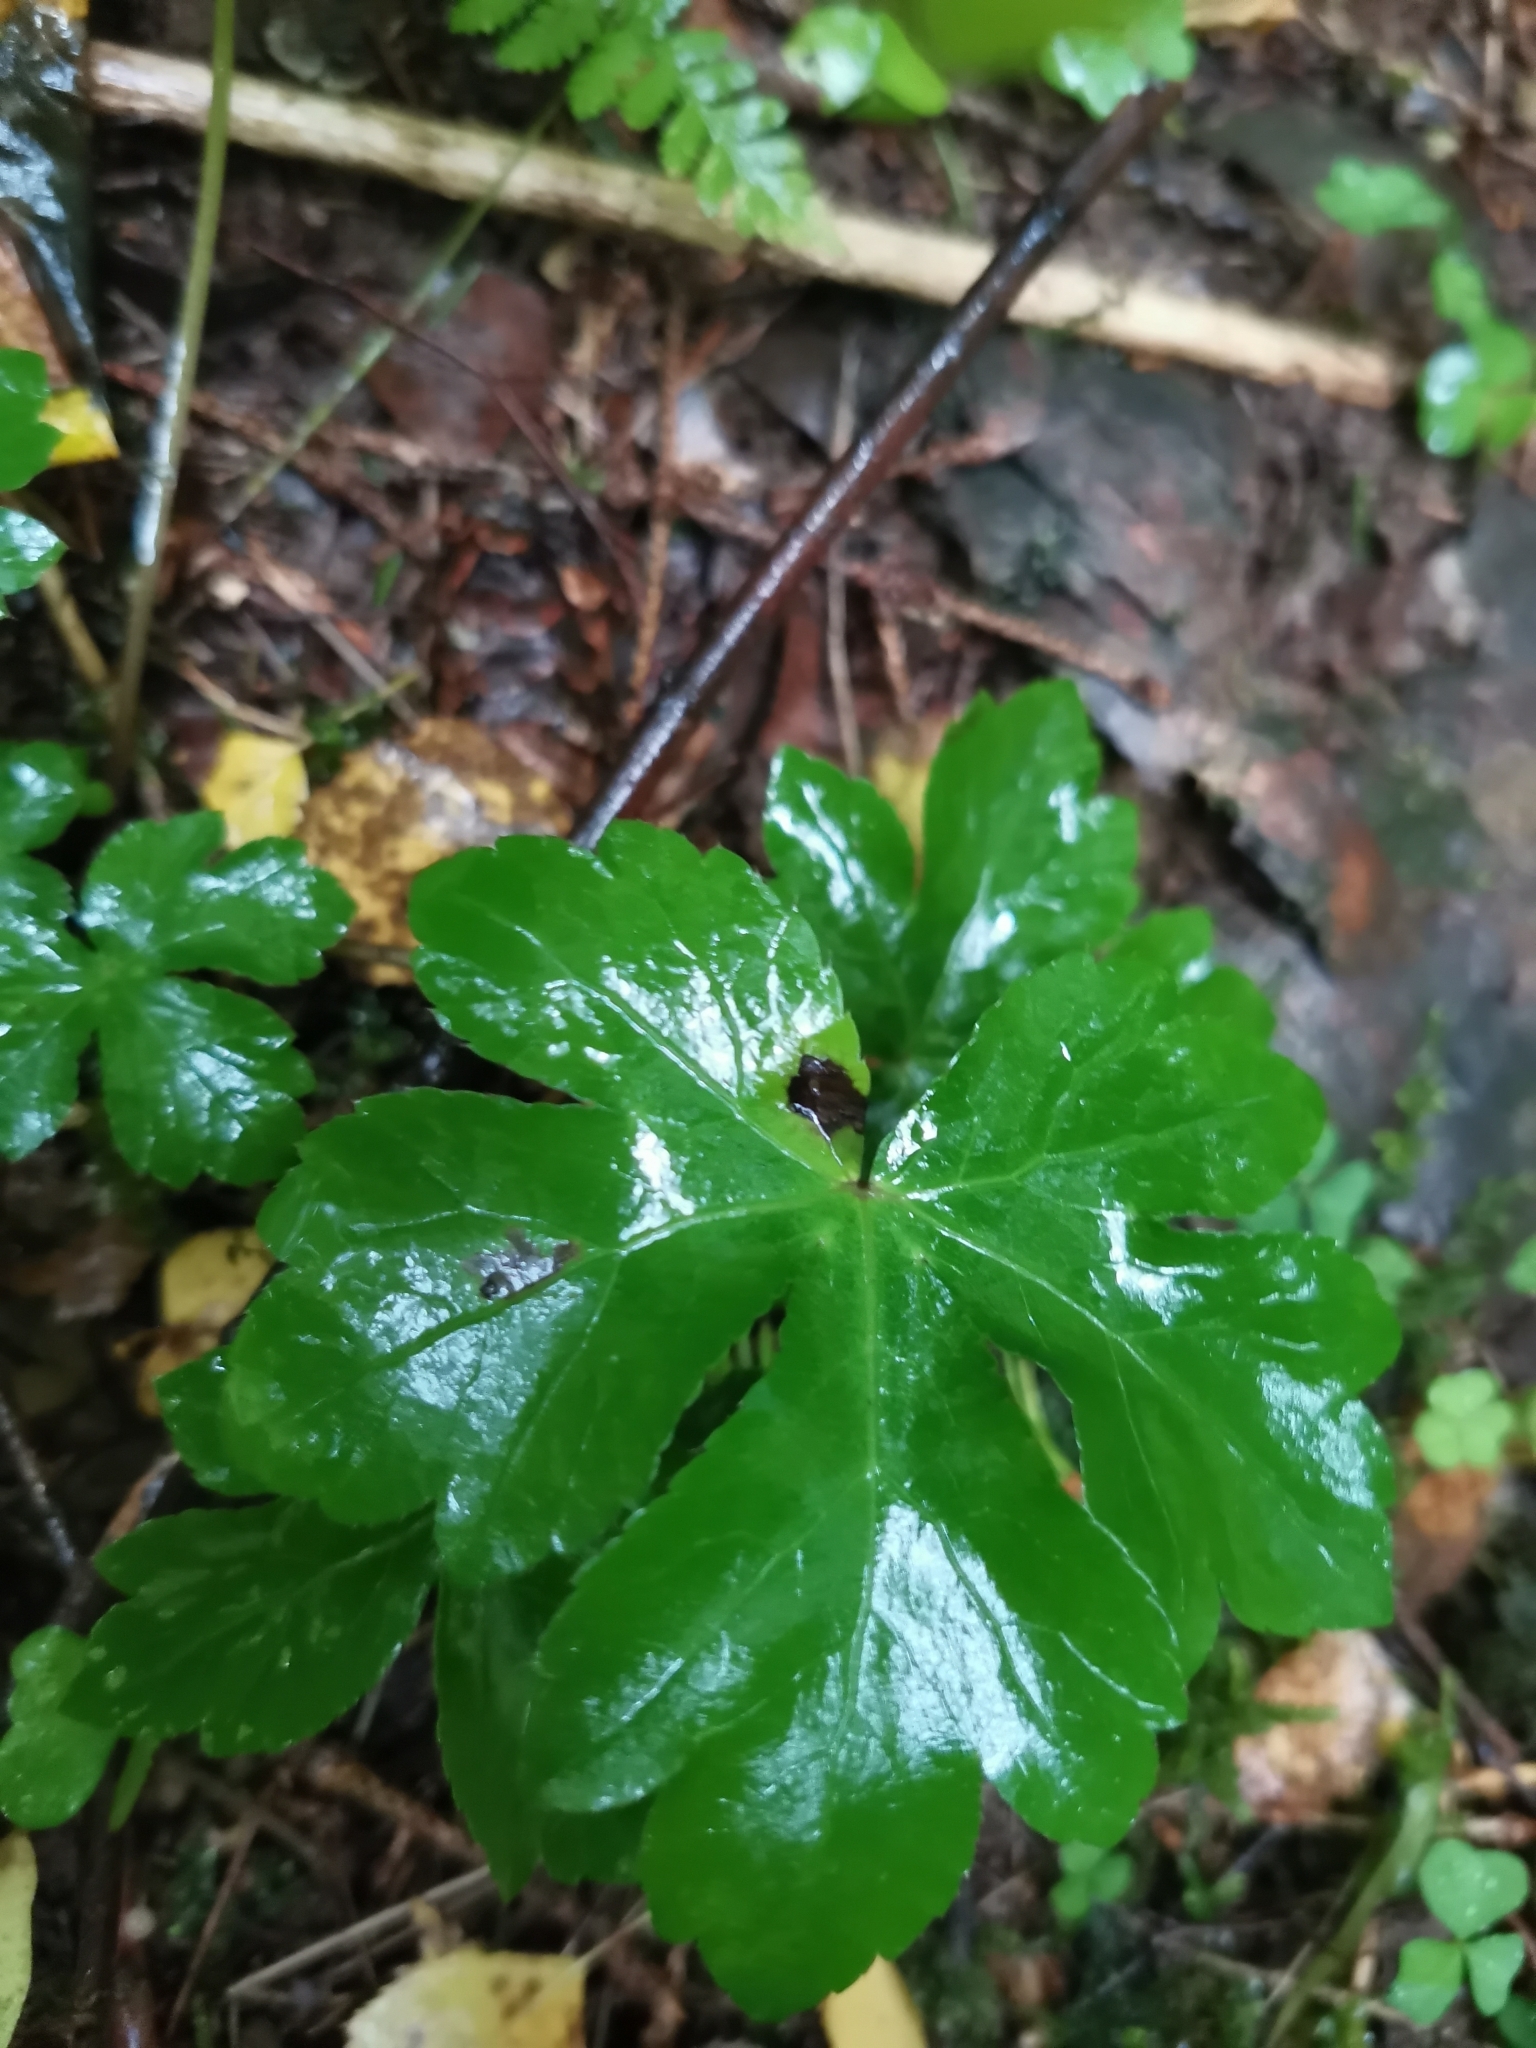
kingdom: Plantae
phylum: Tracheophyta
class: Magnoliopsida
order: Apiales
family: Apiaceae
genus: Sanicula
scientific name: Sanicula europaea
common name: Sanicle
